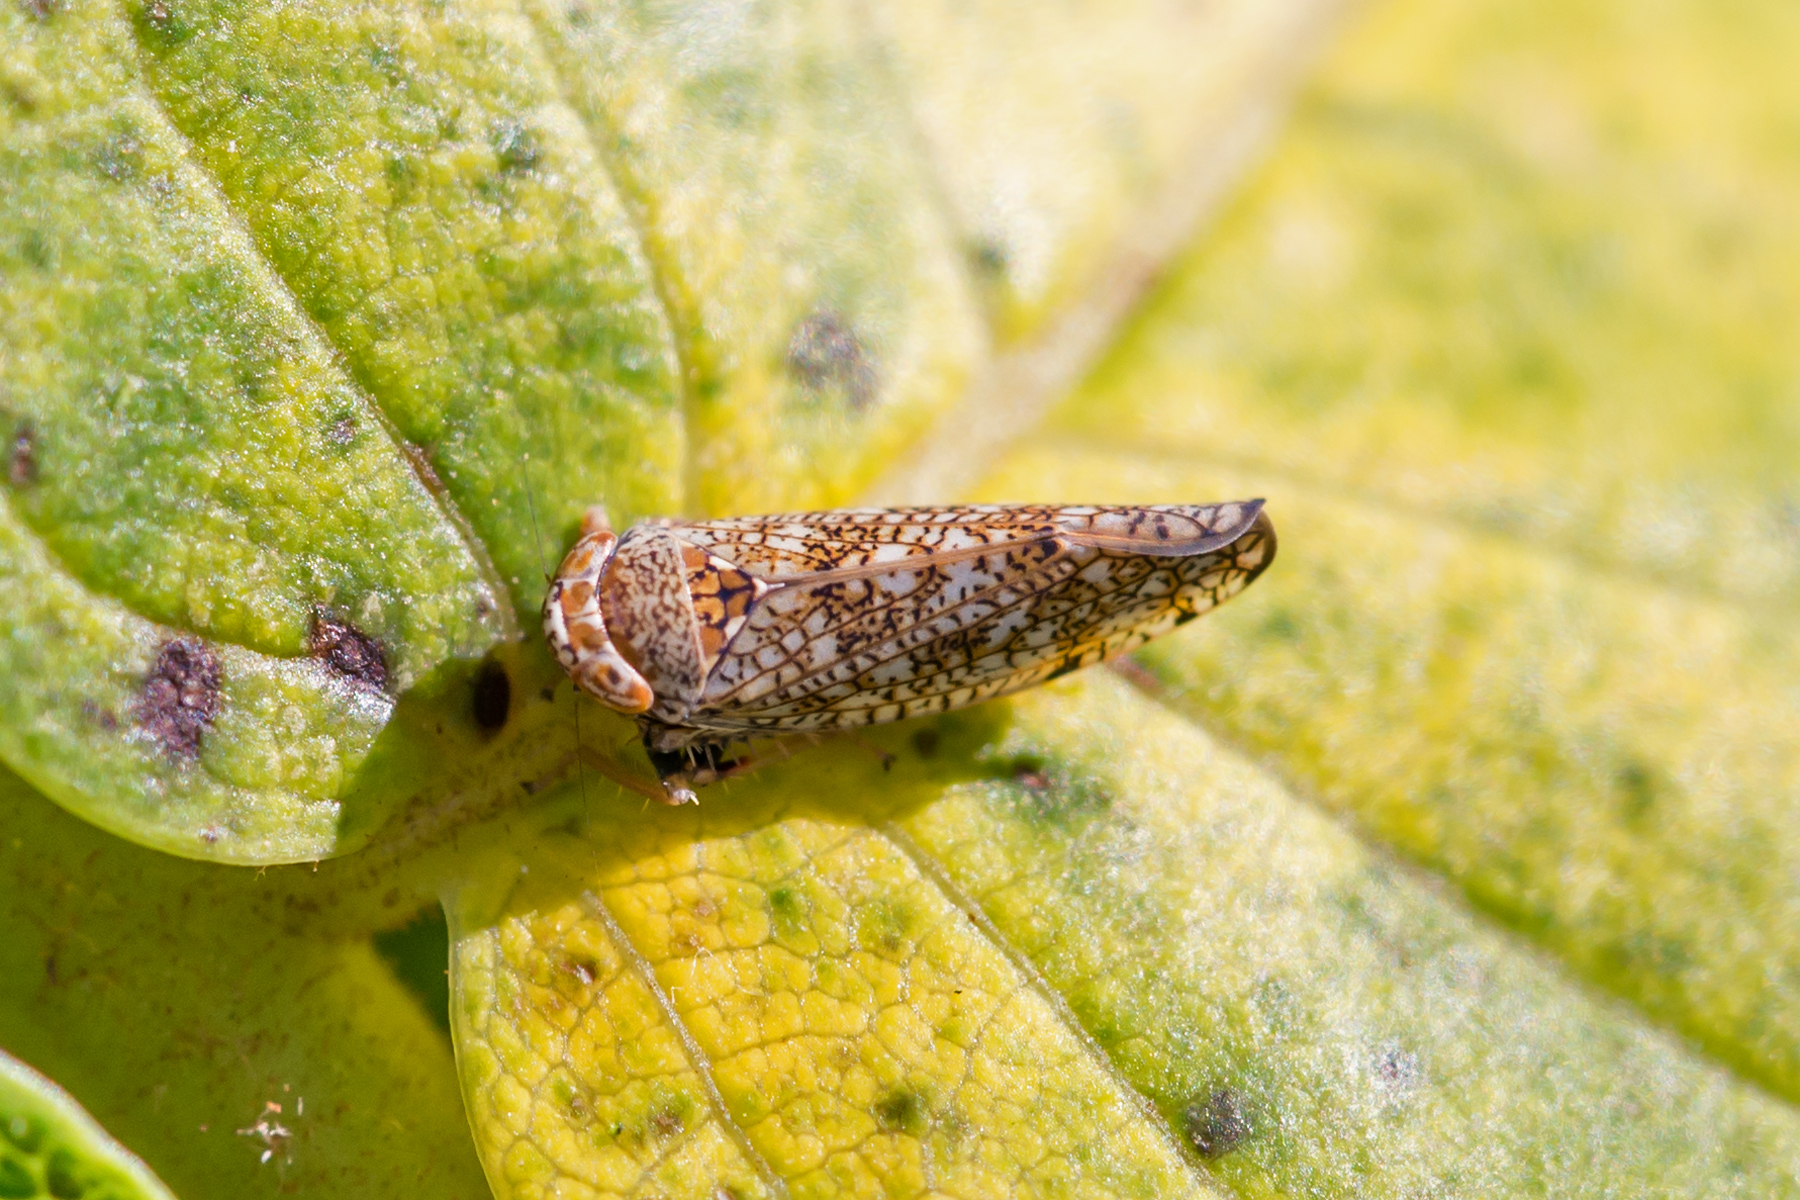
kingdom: Animalia
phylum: Arthropoda
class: Insecta
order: Hemiptera
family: Cicadellidae
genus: Orientus
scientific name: Orientus ishidae
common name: Japanese leafhopper
